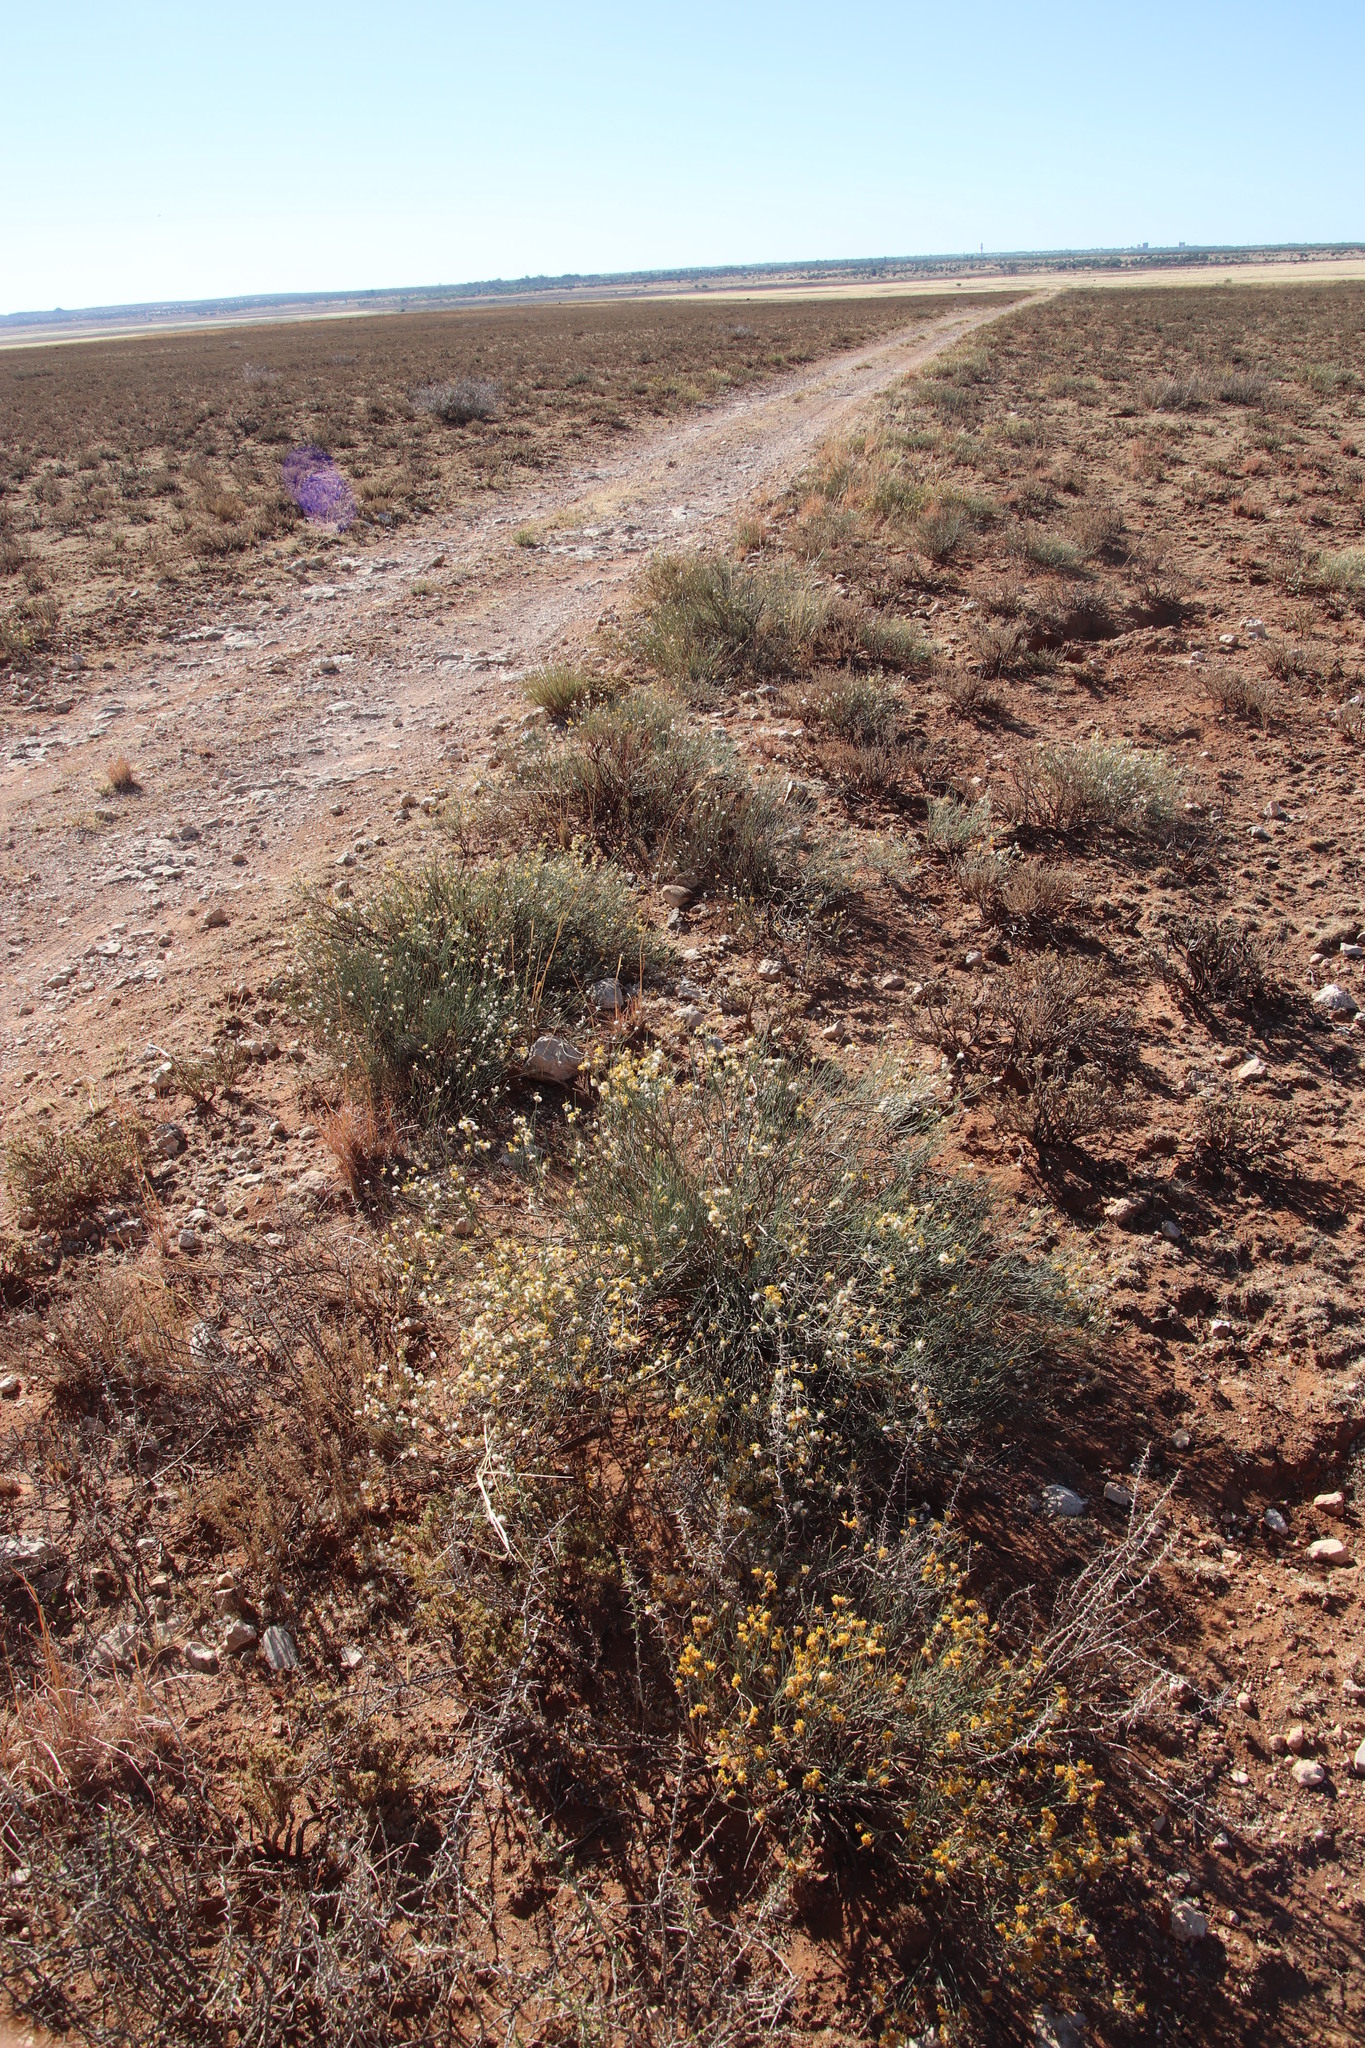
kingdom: Plantae
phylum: Tracheophyta
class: Magnoliopsida
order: Malvales
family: Thymelaeaceae
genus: Gnidia
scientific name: Gnidia polycephala
